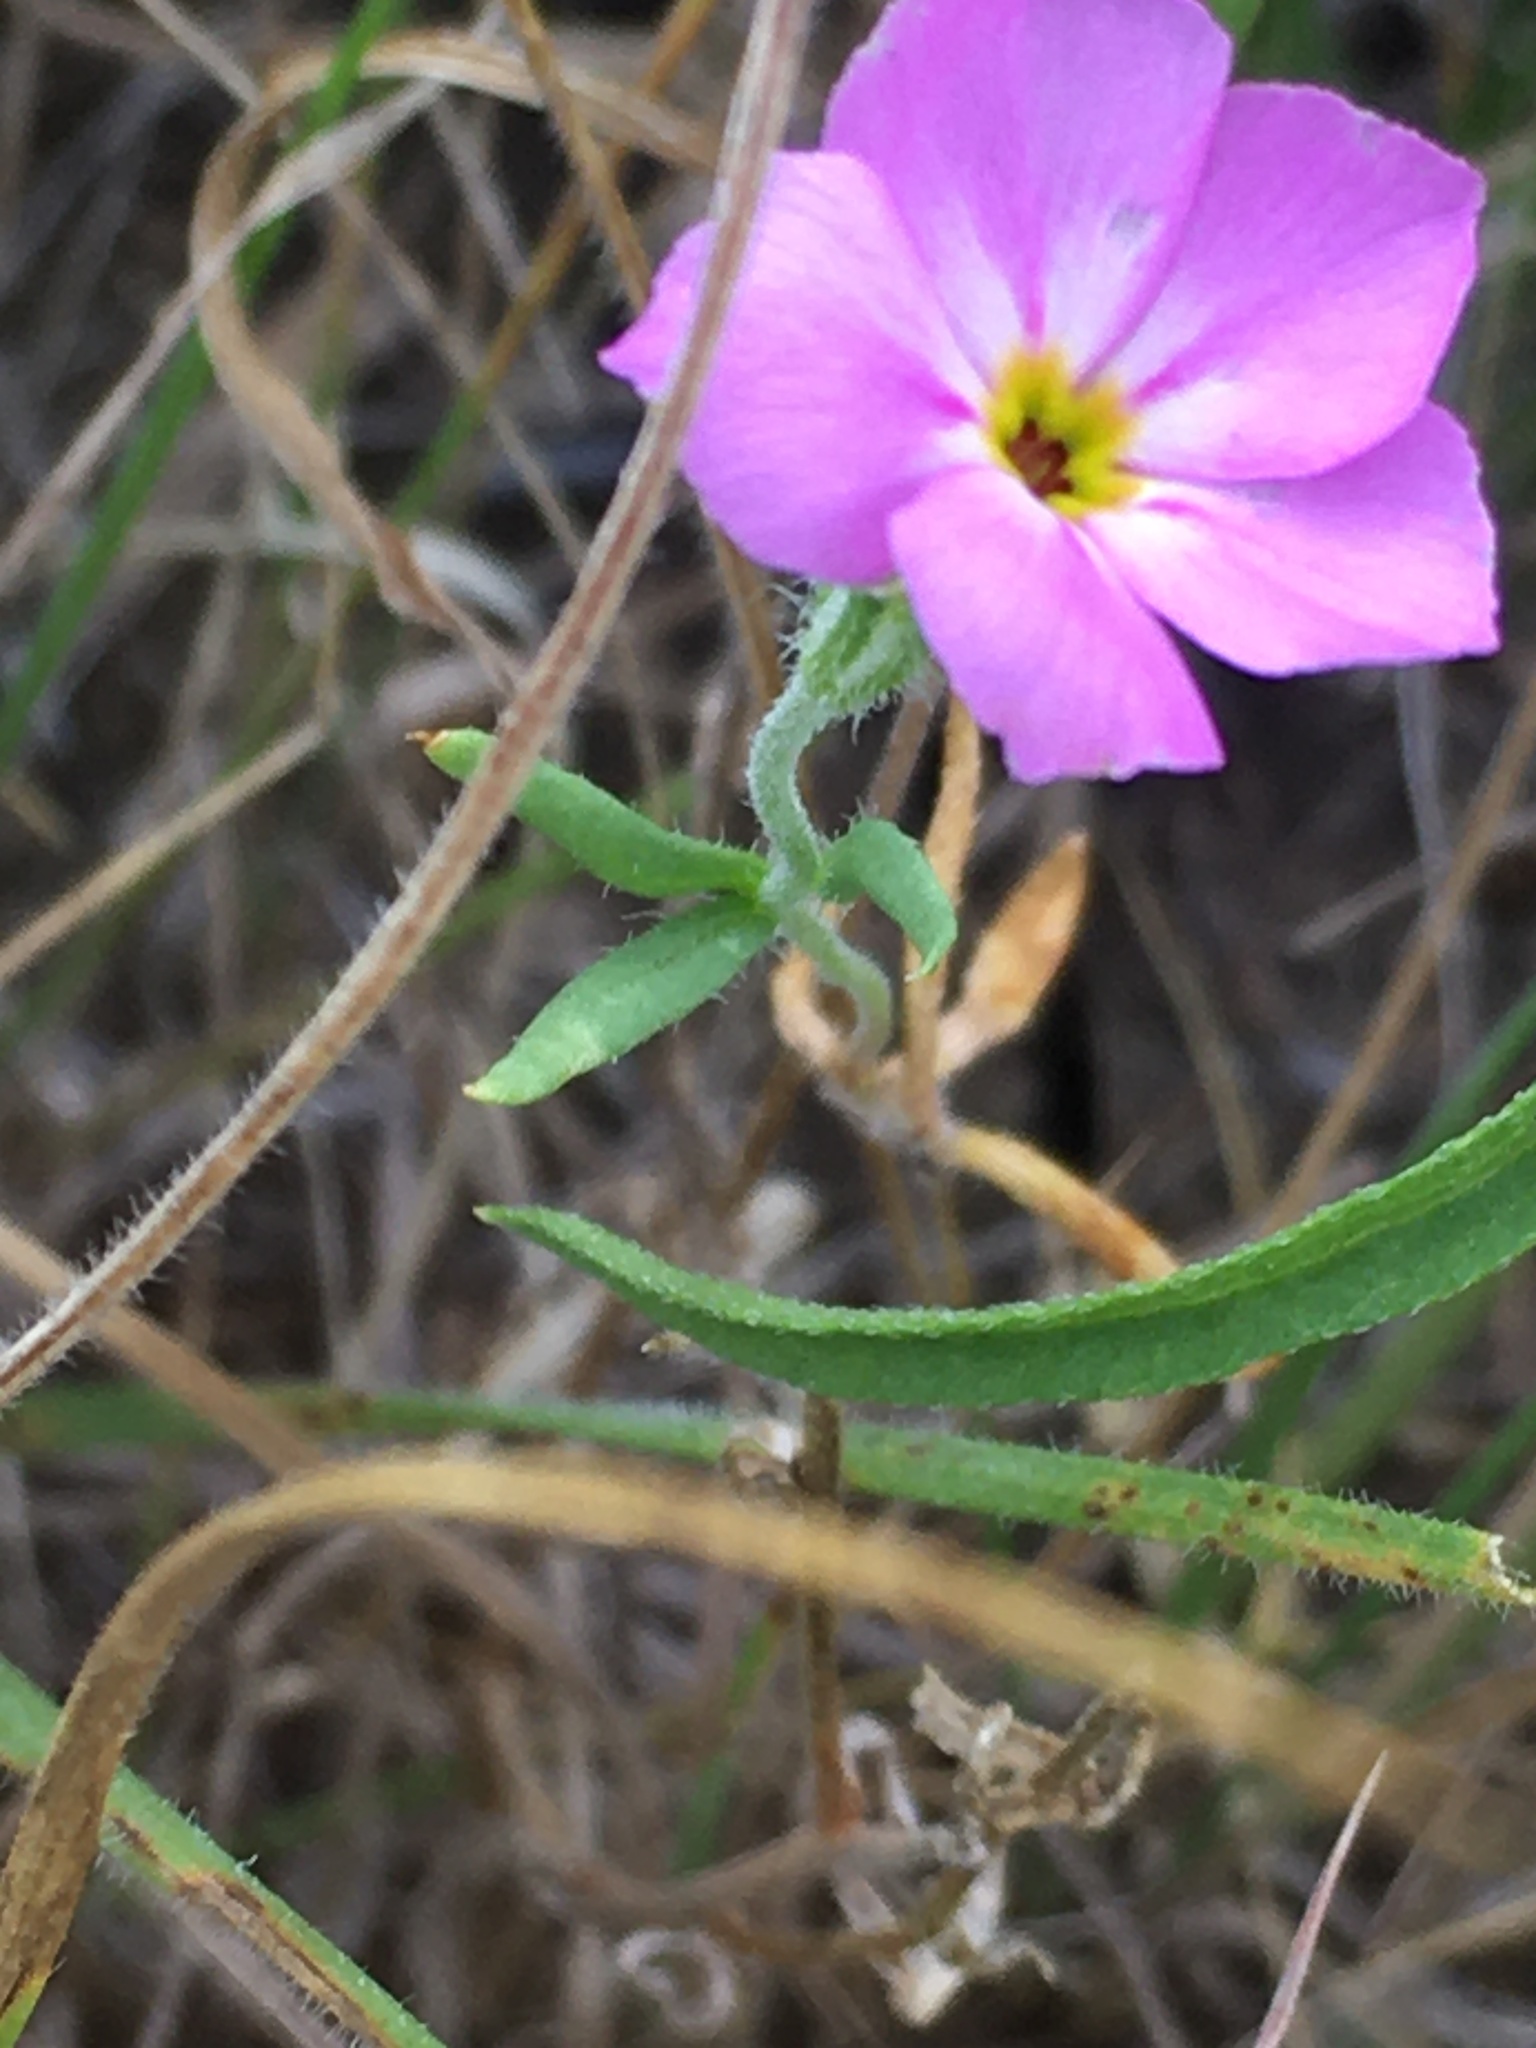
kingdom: Plantae
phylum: Tracheophyta
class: Magnoliopsida
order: Ericales
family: Polemoniaceae
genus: Phlox
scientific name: Phlox roemeriana
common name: Roemer's phlox
